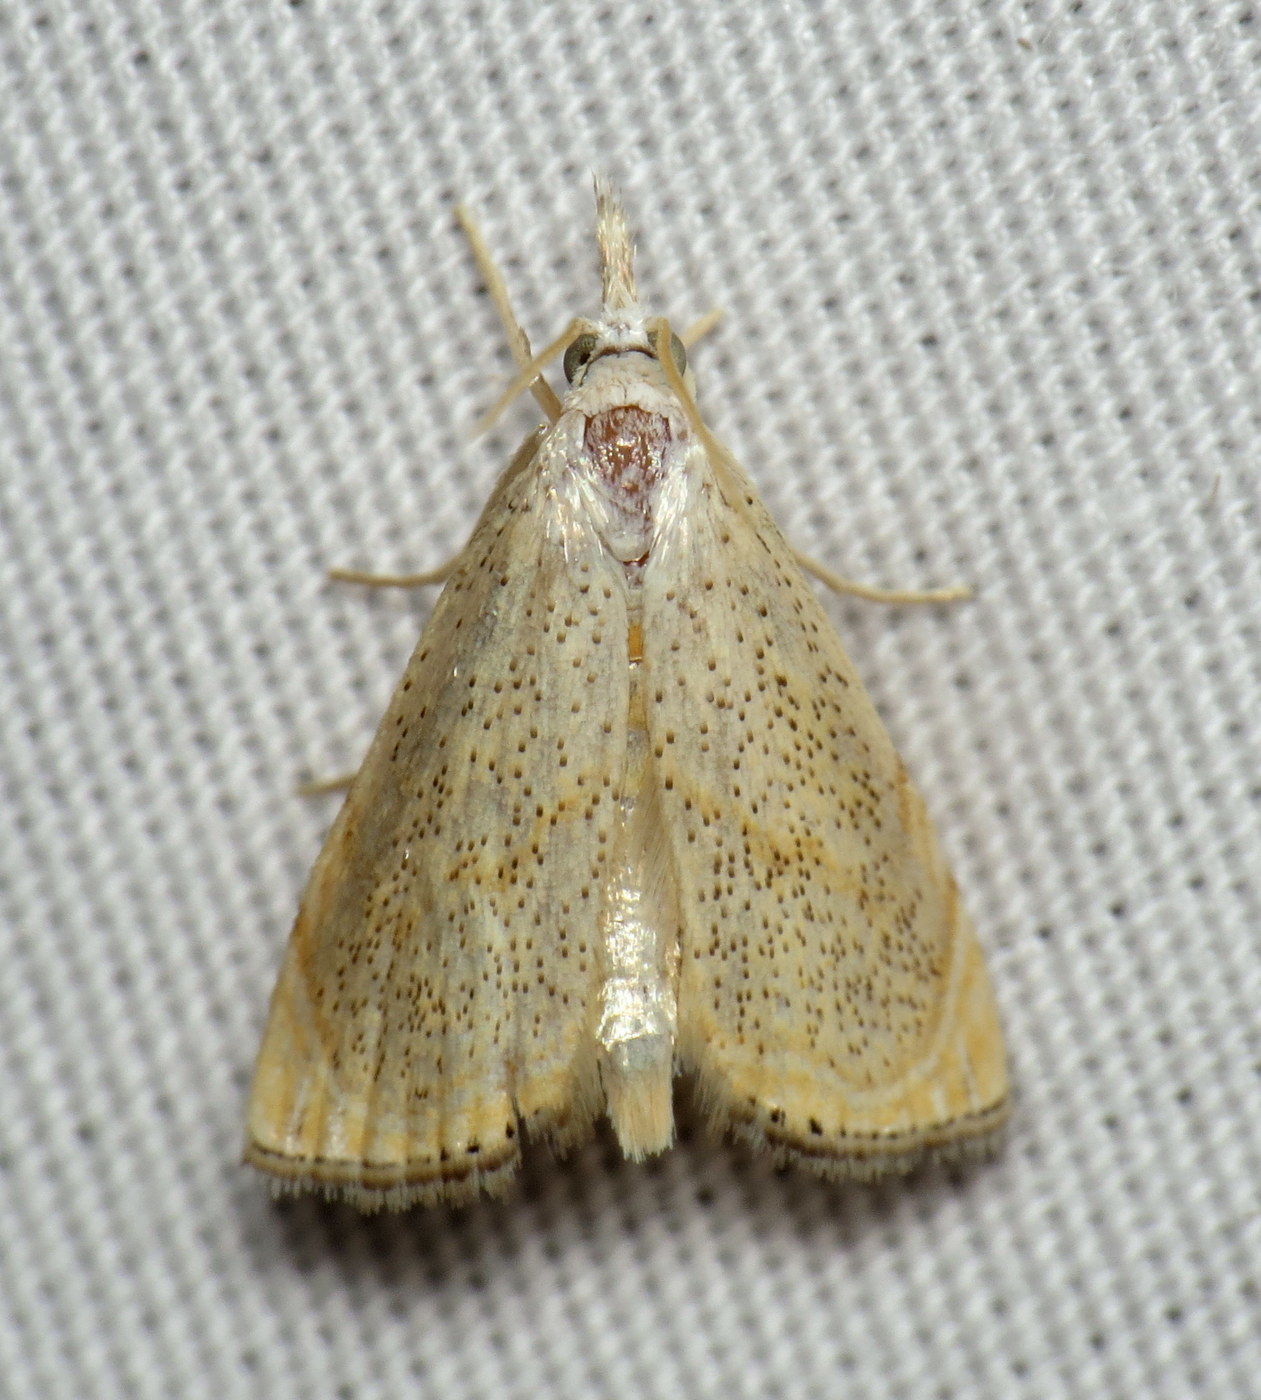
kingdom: Animalia
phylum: Arthropoda
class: Insecta
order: Lepidoptera
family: Crambidae
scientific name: Crambidae
